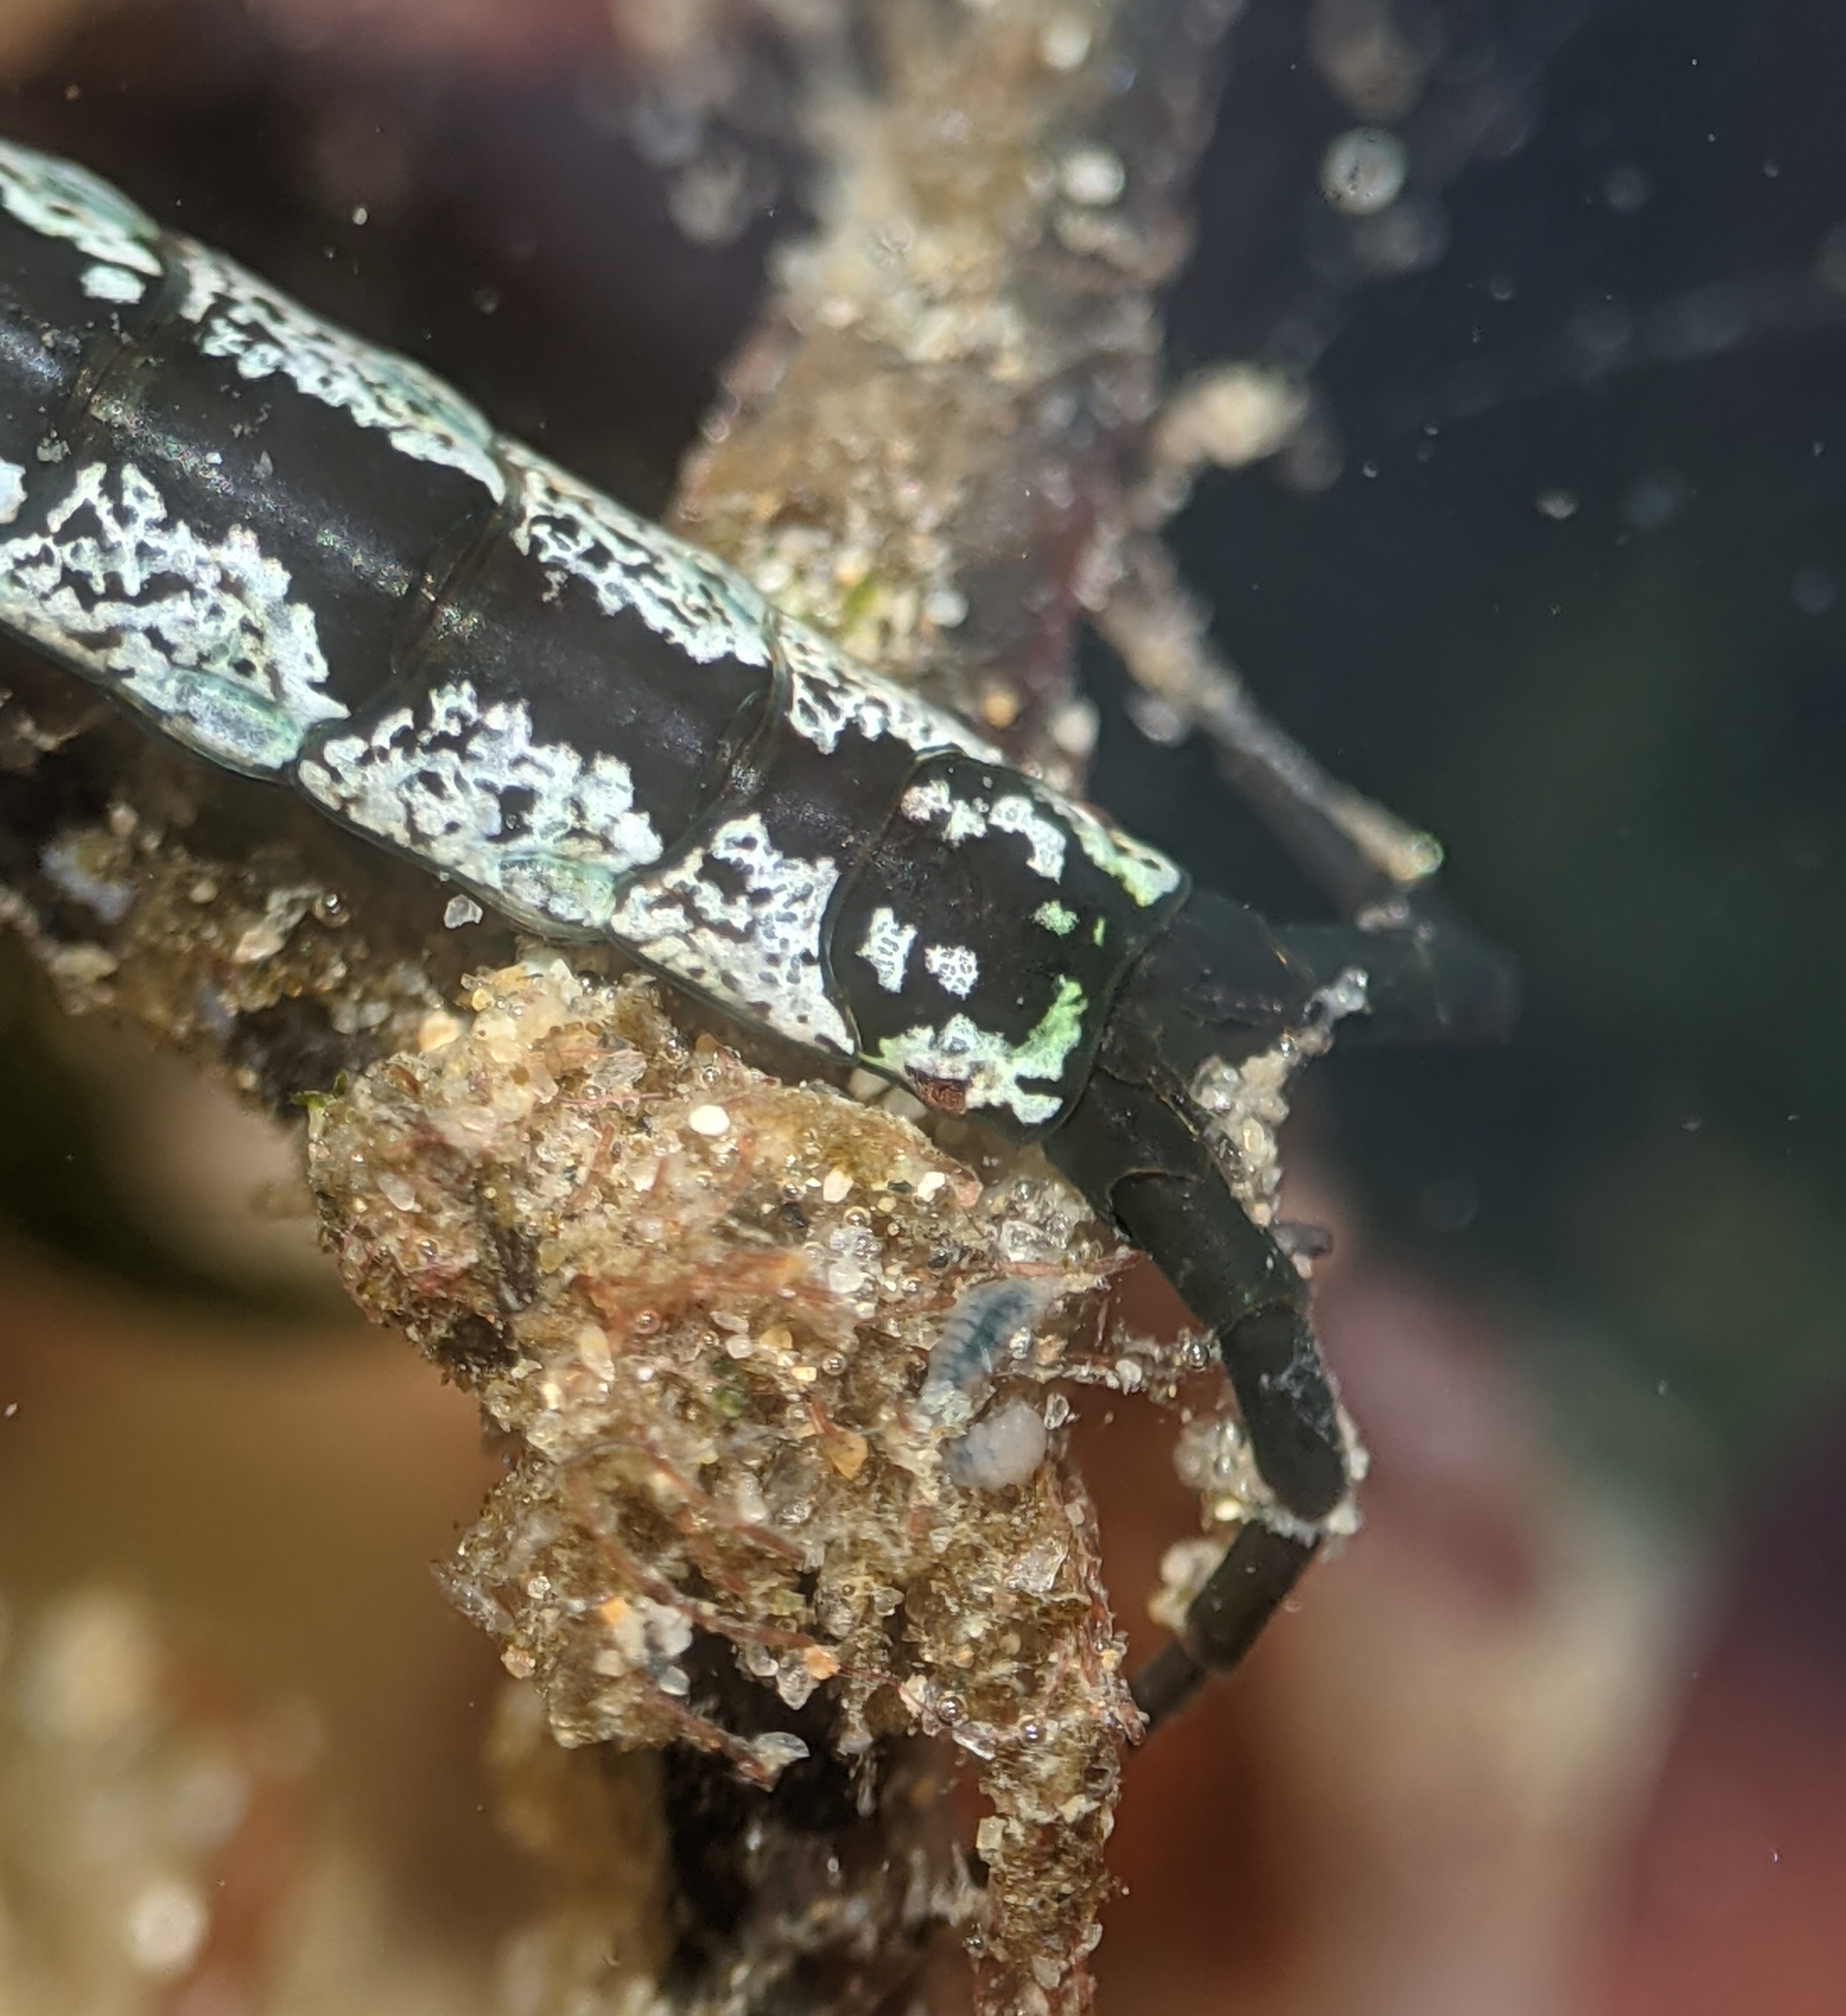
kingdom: Animalia
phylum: Arthropoda
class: Malacostraca
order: Isopoda
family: Idoteidae
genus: Pentidotea
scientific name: Pentidotea kirchanskii
